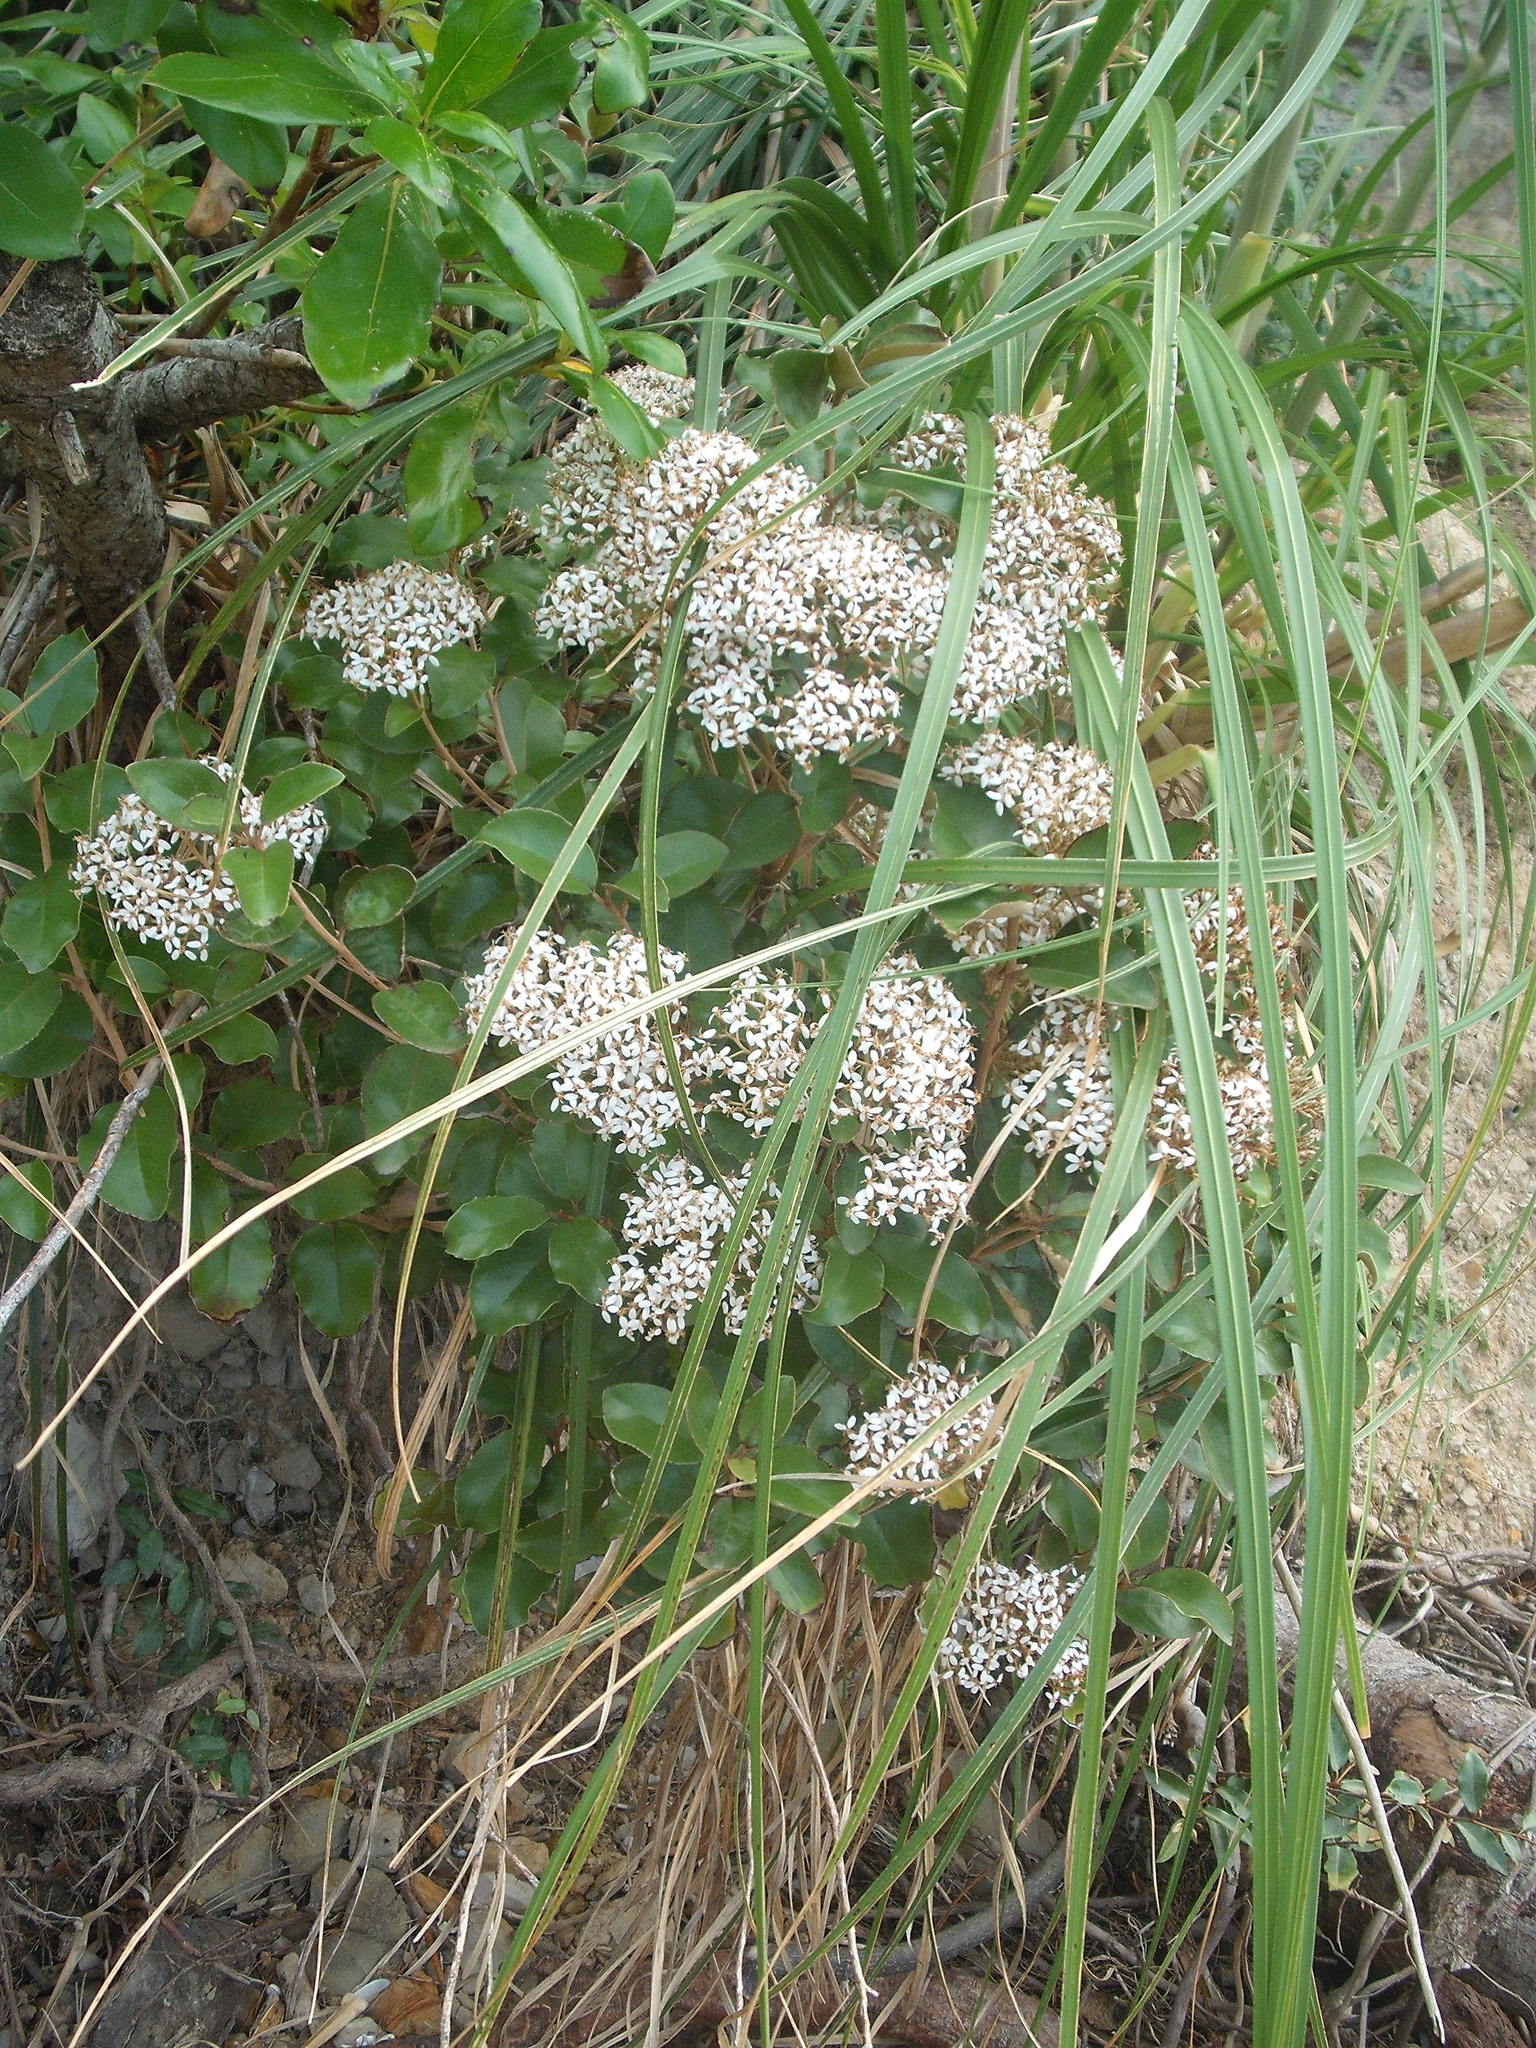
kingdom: Plantae
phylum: Tracheophyta
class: Magnoliopsida
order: Asterales
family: Asteraceae
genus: Olearia
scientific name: Olearia furfuracea
